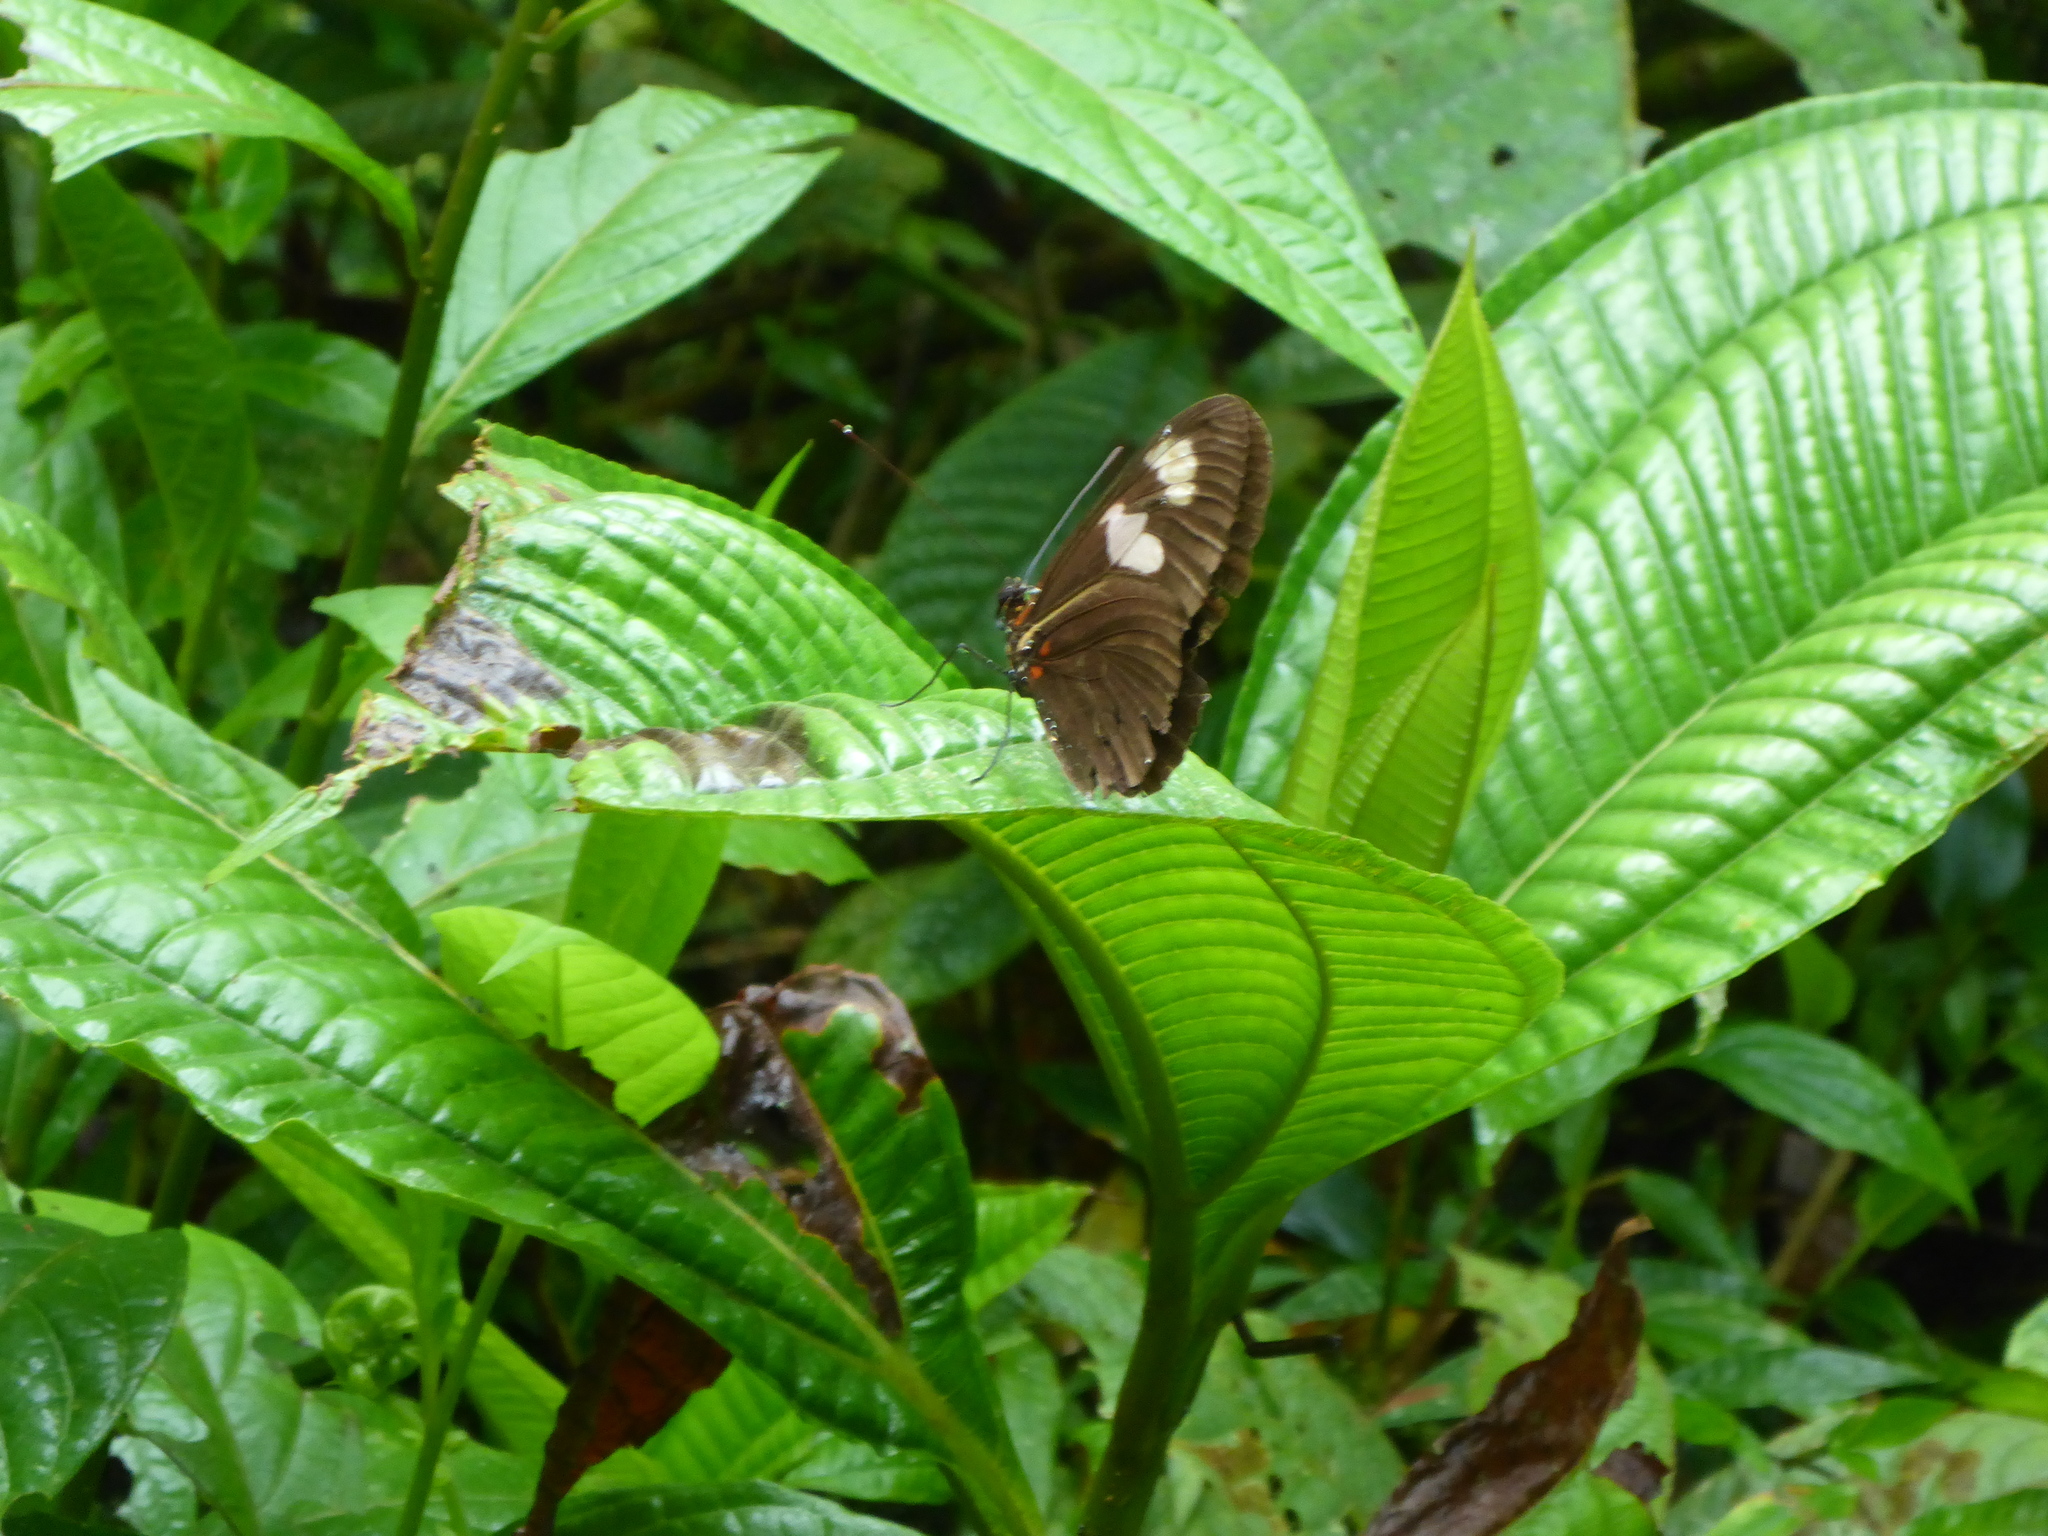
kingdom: Animalia
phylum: Arthropoda
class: Insecta
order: Lepidoptera
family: Nymphalidae
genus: Heliconius
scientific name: Heliconius melpomene
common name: Postman
